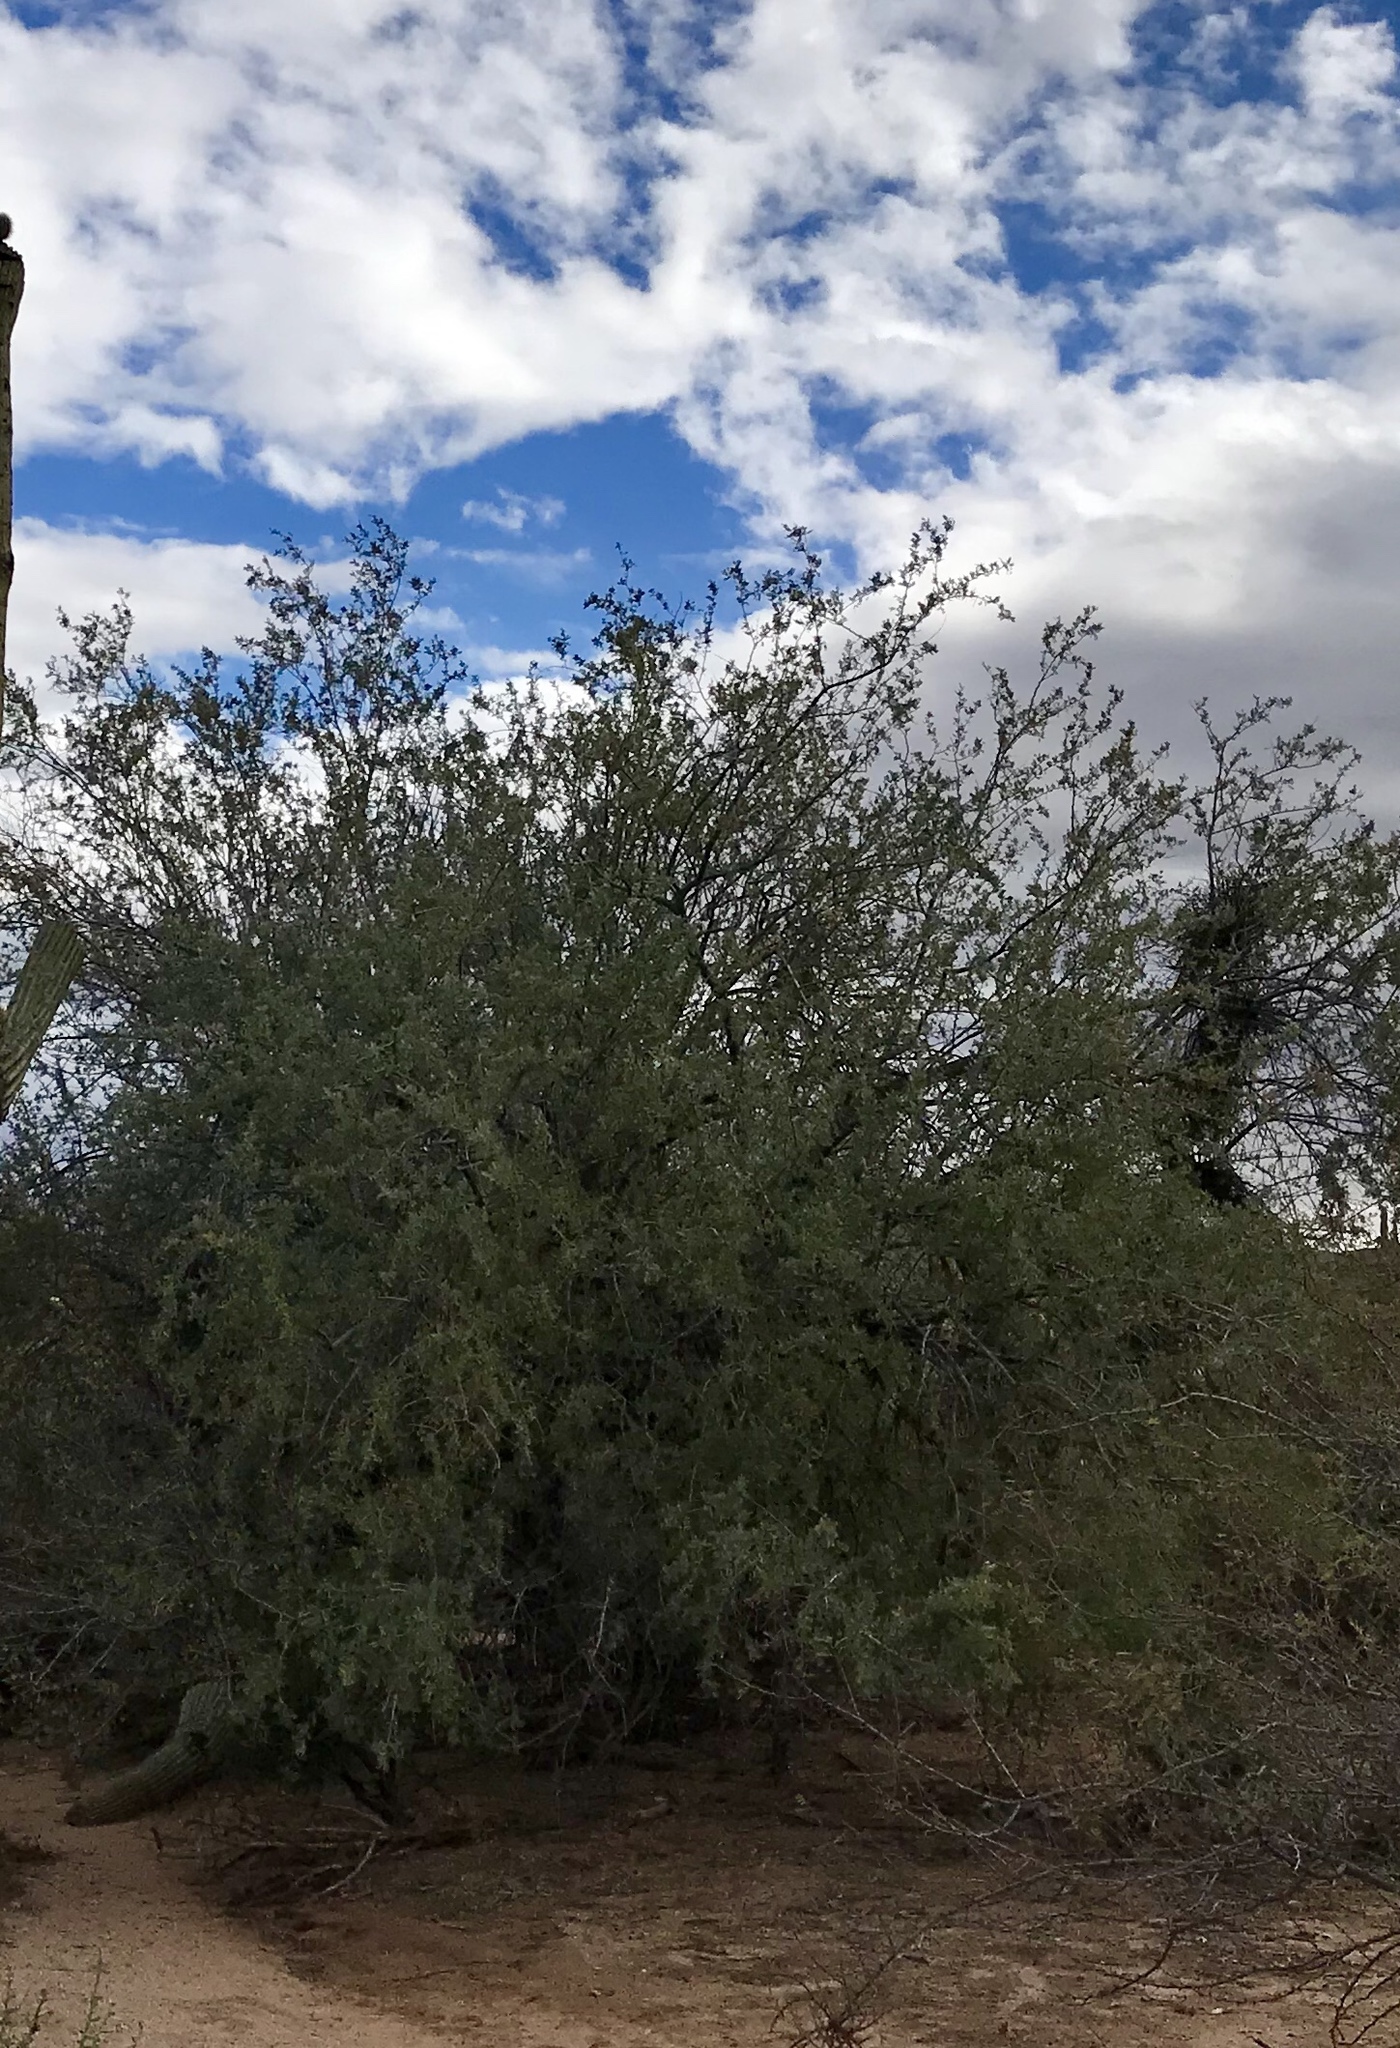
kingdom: Plantae
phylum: Tracheophyta
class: Magnoliopsida
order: Fabales
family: Fabaceae
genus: Olneya
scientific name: Olneya tesota
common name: Desert ironwood
